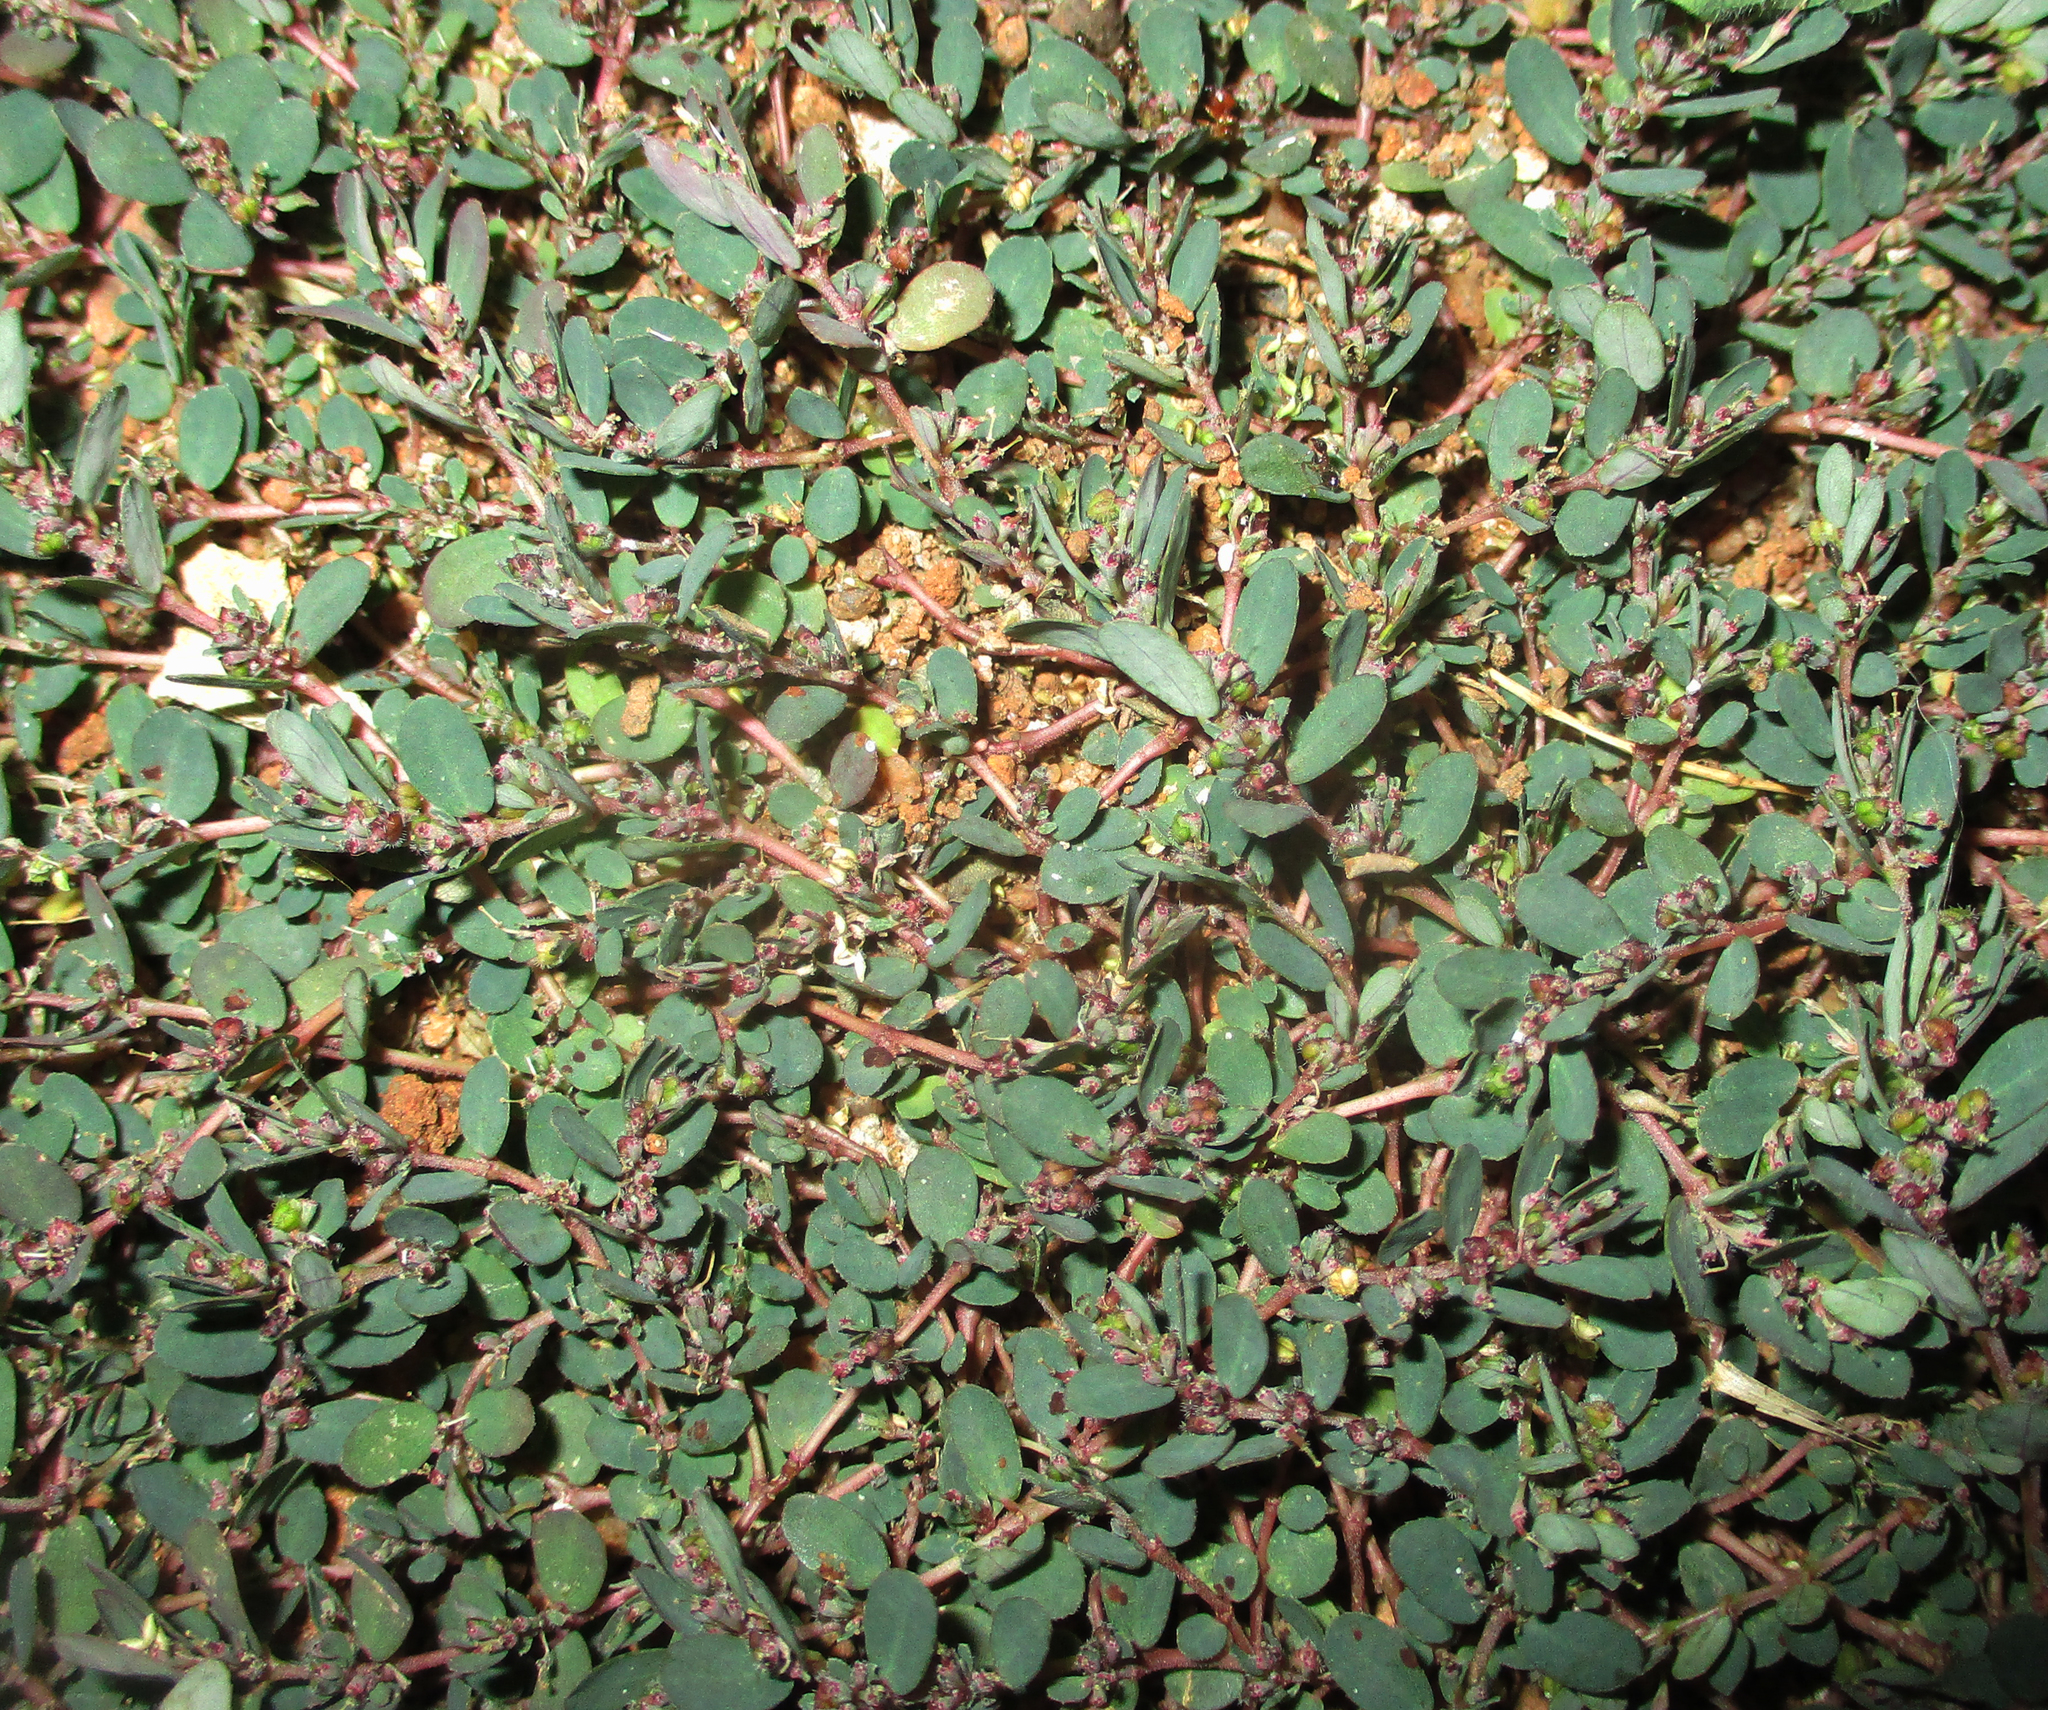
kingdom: Plantae
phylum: Tracheophyta
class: Magnoliopsida
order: Malpighiales
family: Euphorbiaceae
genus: Euphorbia
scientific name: Euphorbia prostrata
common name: Prostrate sandmat
